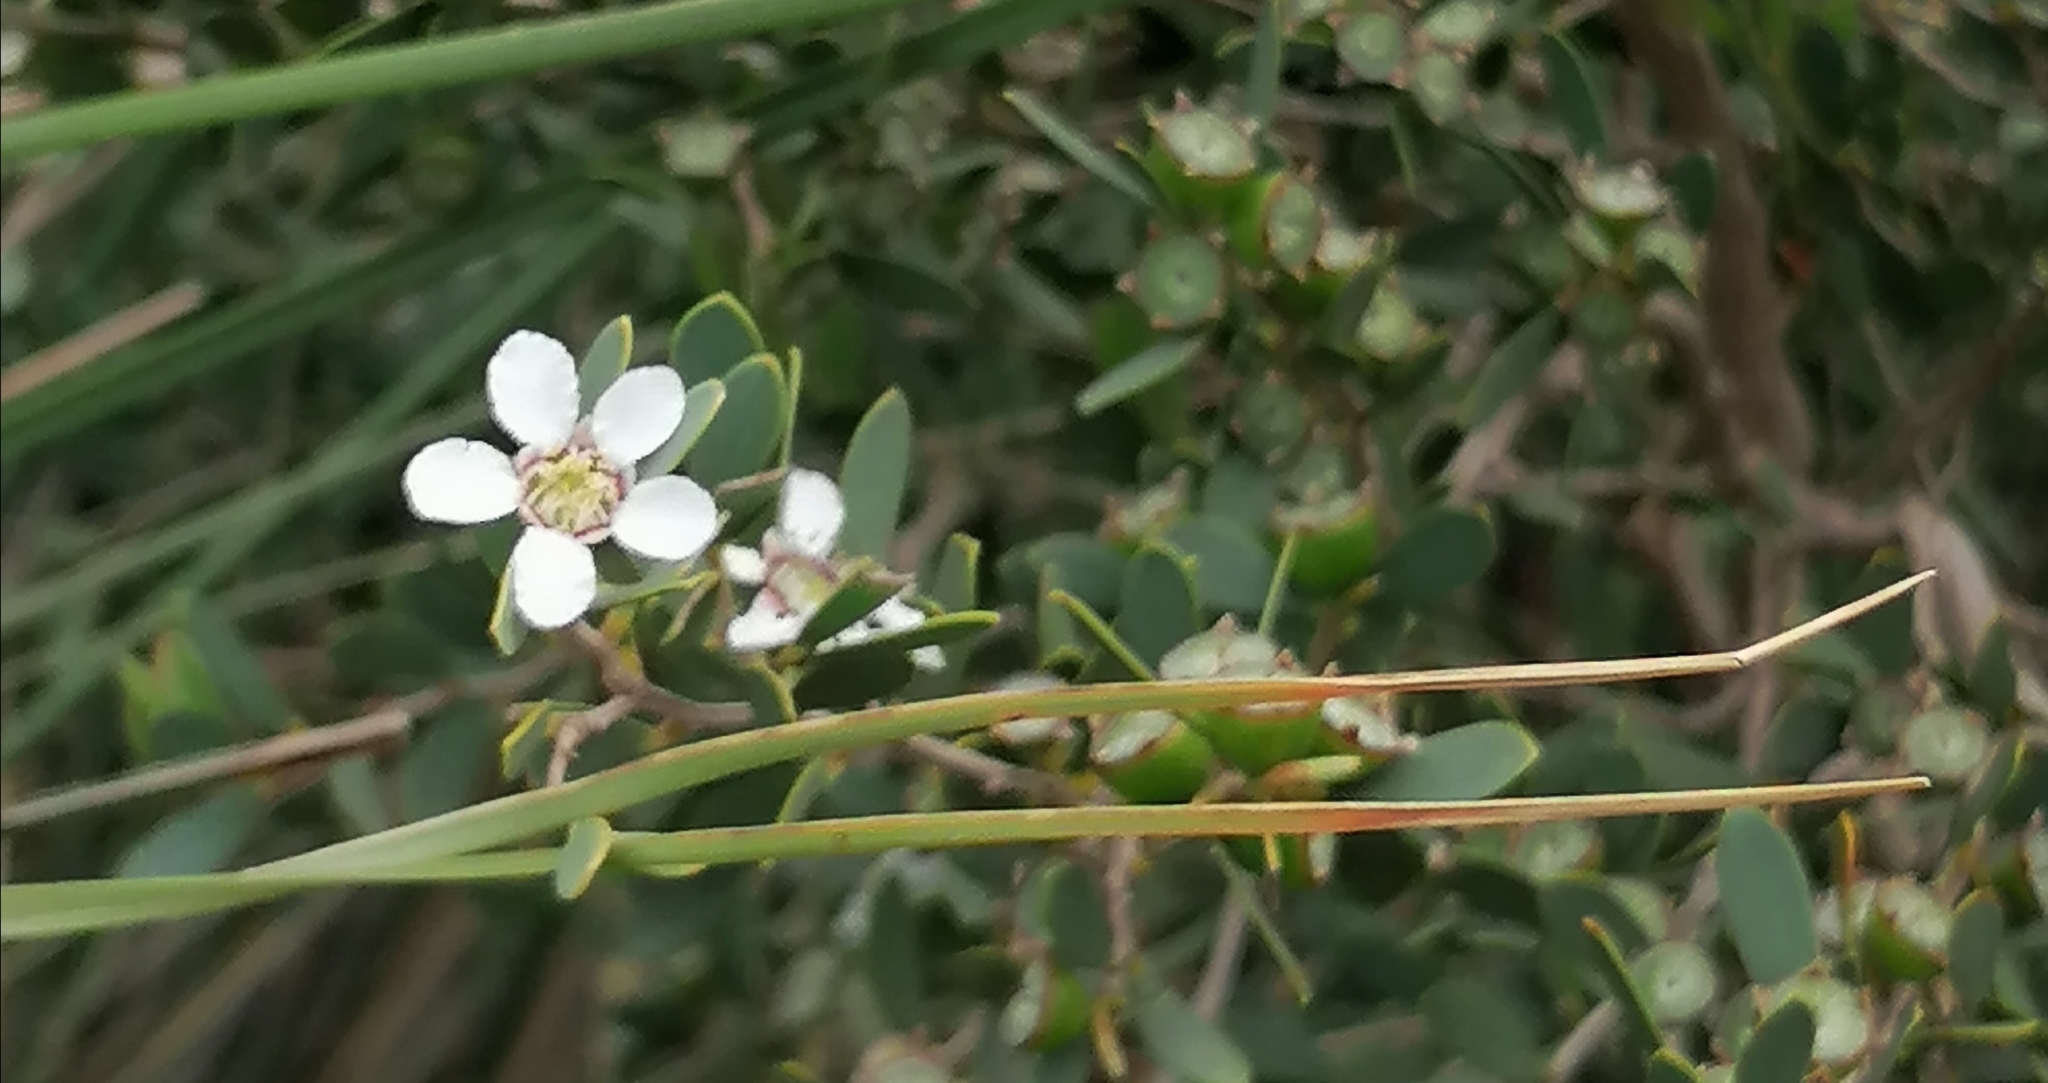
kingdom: Plantae
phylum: Tracheophyta
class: Magnoliopsida
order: Myrtales
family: Myrtaceae
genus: Leptospermum
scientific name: Leptospermum laevigatum
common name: Australian teatree
